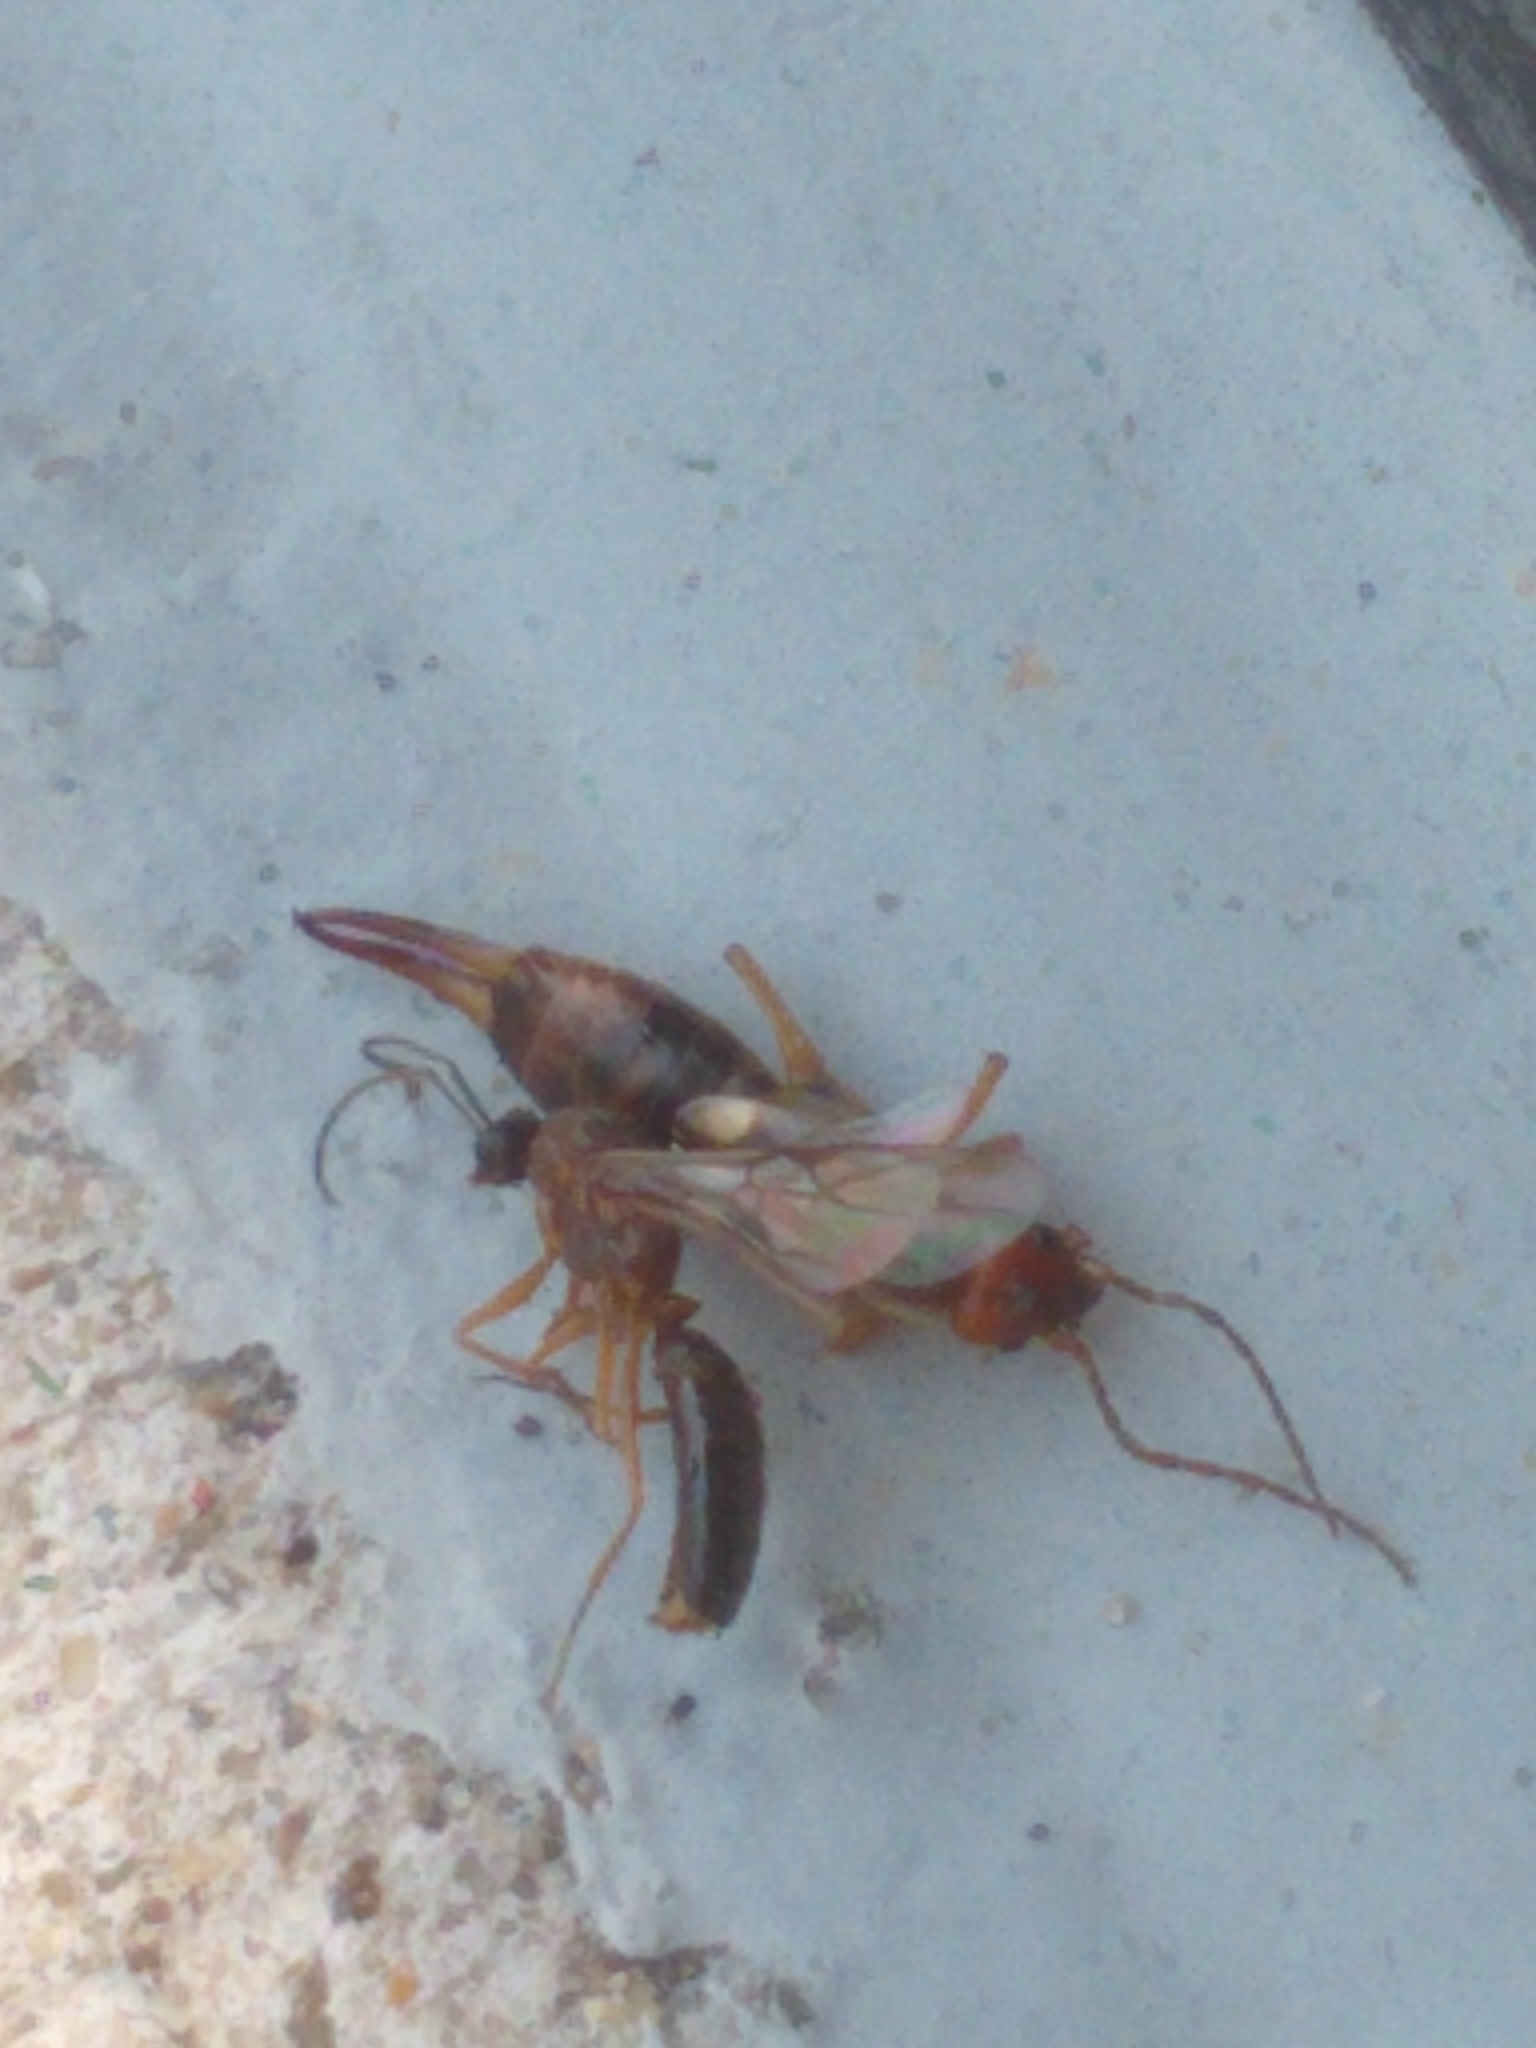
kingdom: Animalia
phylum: Arthropoda
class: Insecta
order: Dermaptera
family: Forficulidae
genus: Forficula
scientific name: Forficula
